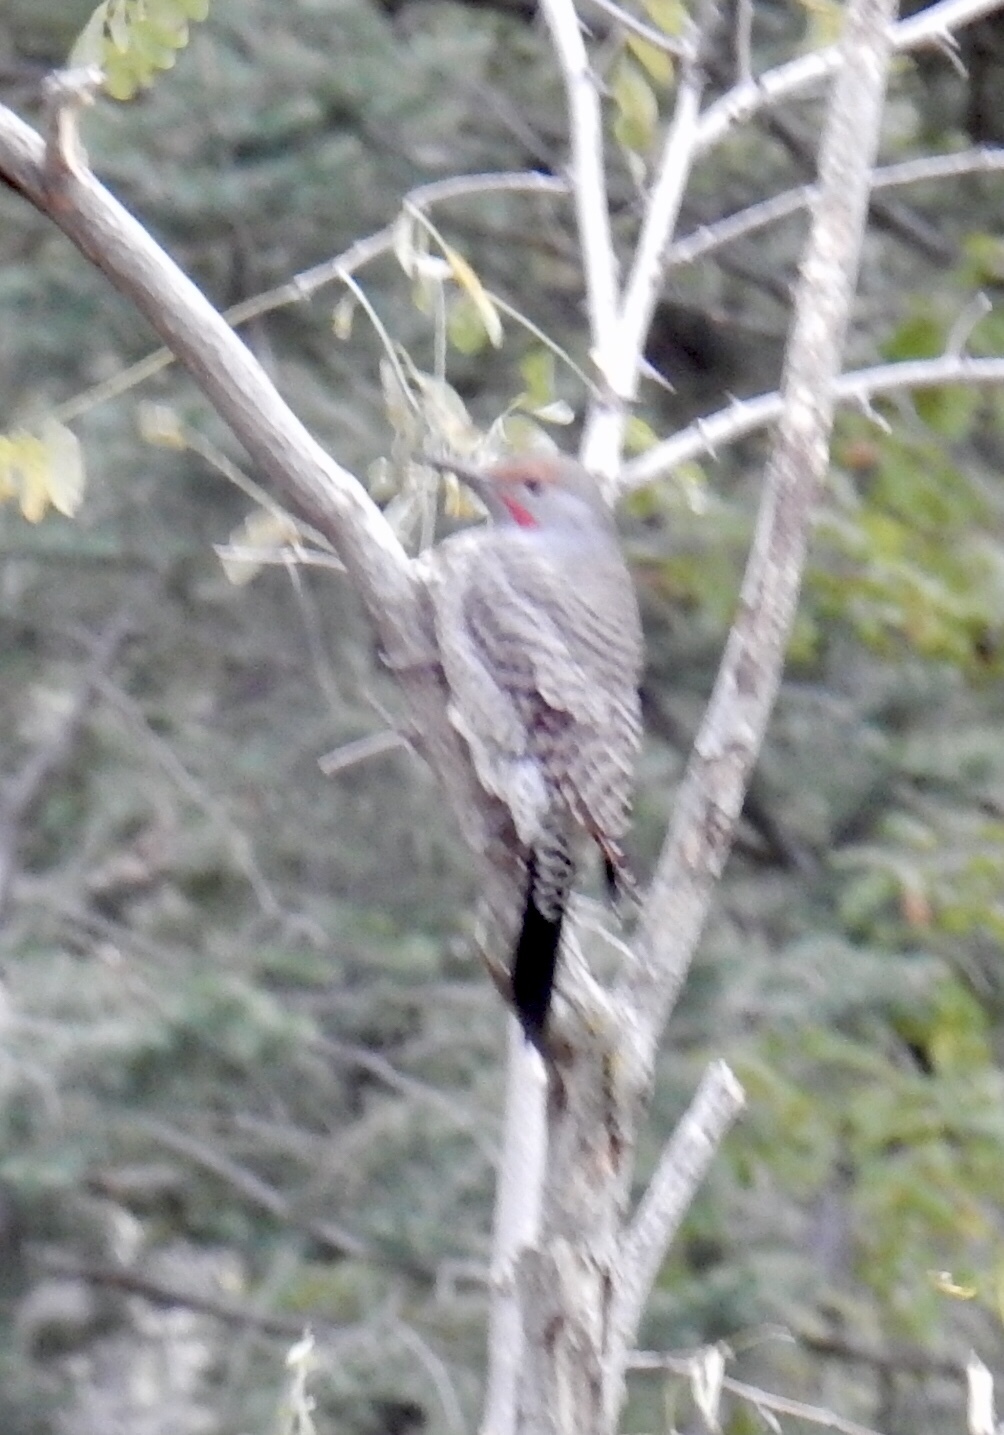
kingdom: Animalia
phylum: Chordata
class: Aves
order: Piciformes
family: Picidae
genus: Colaptes
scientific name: Colaptes auratus
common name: Northern flicker
